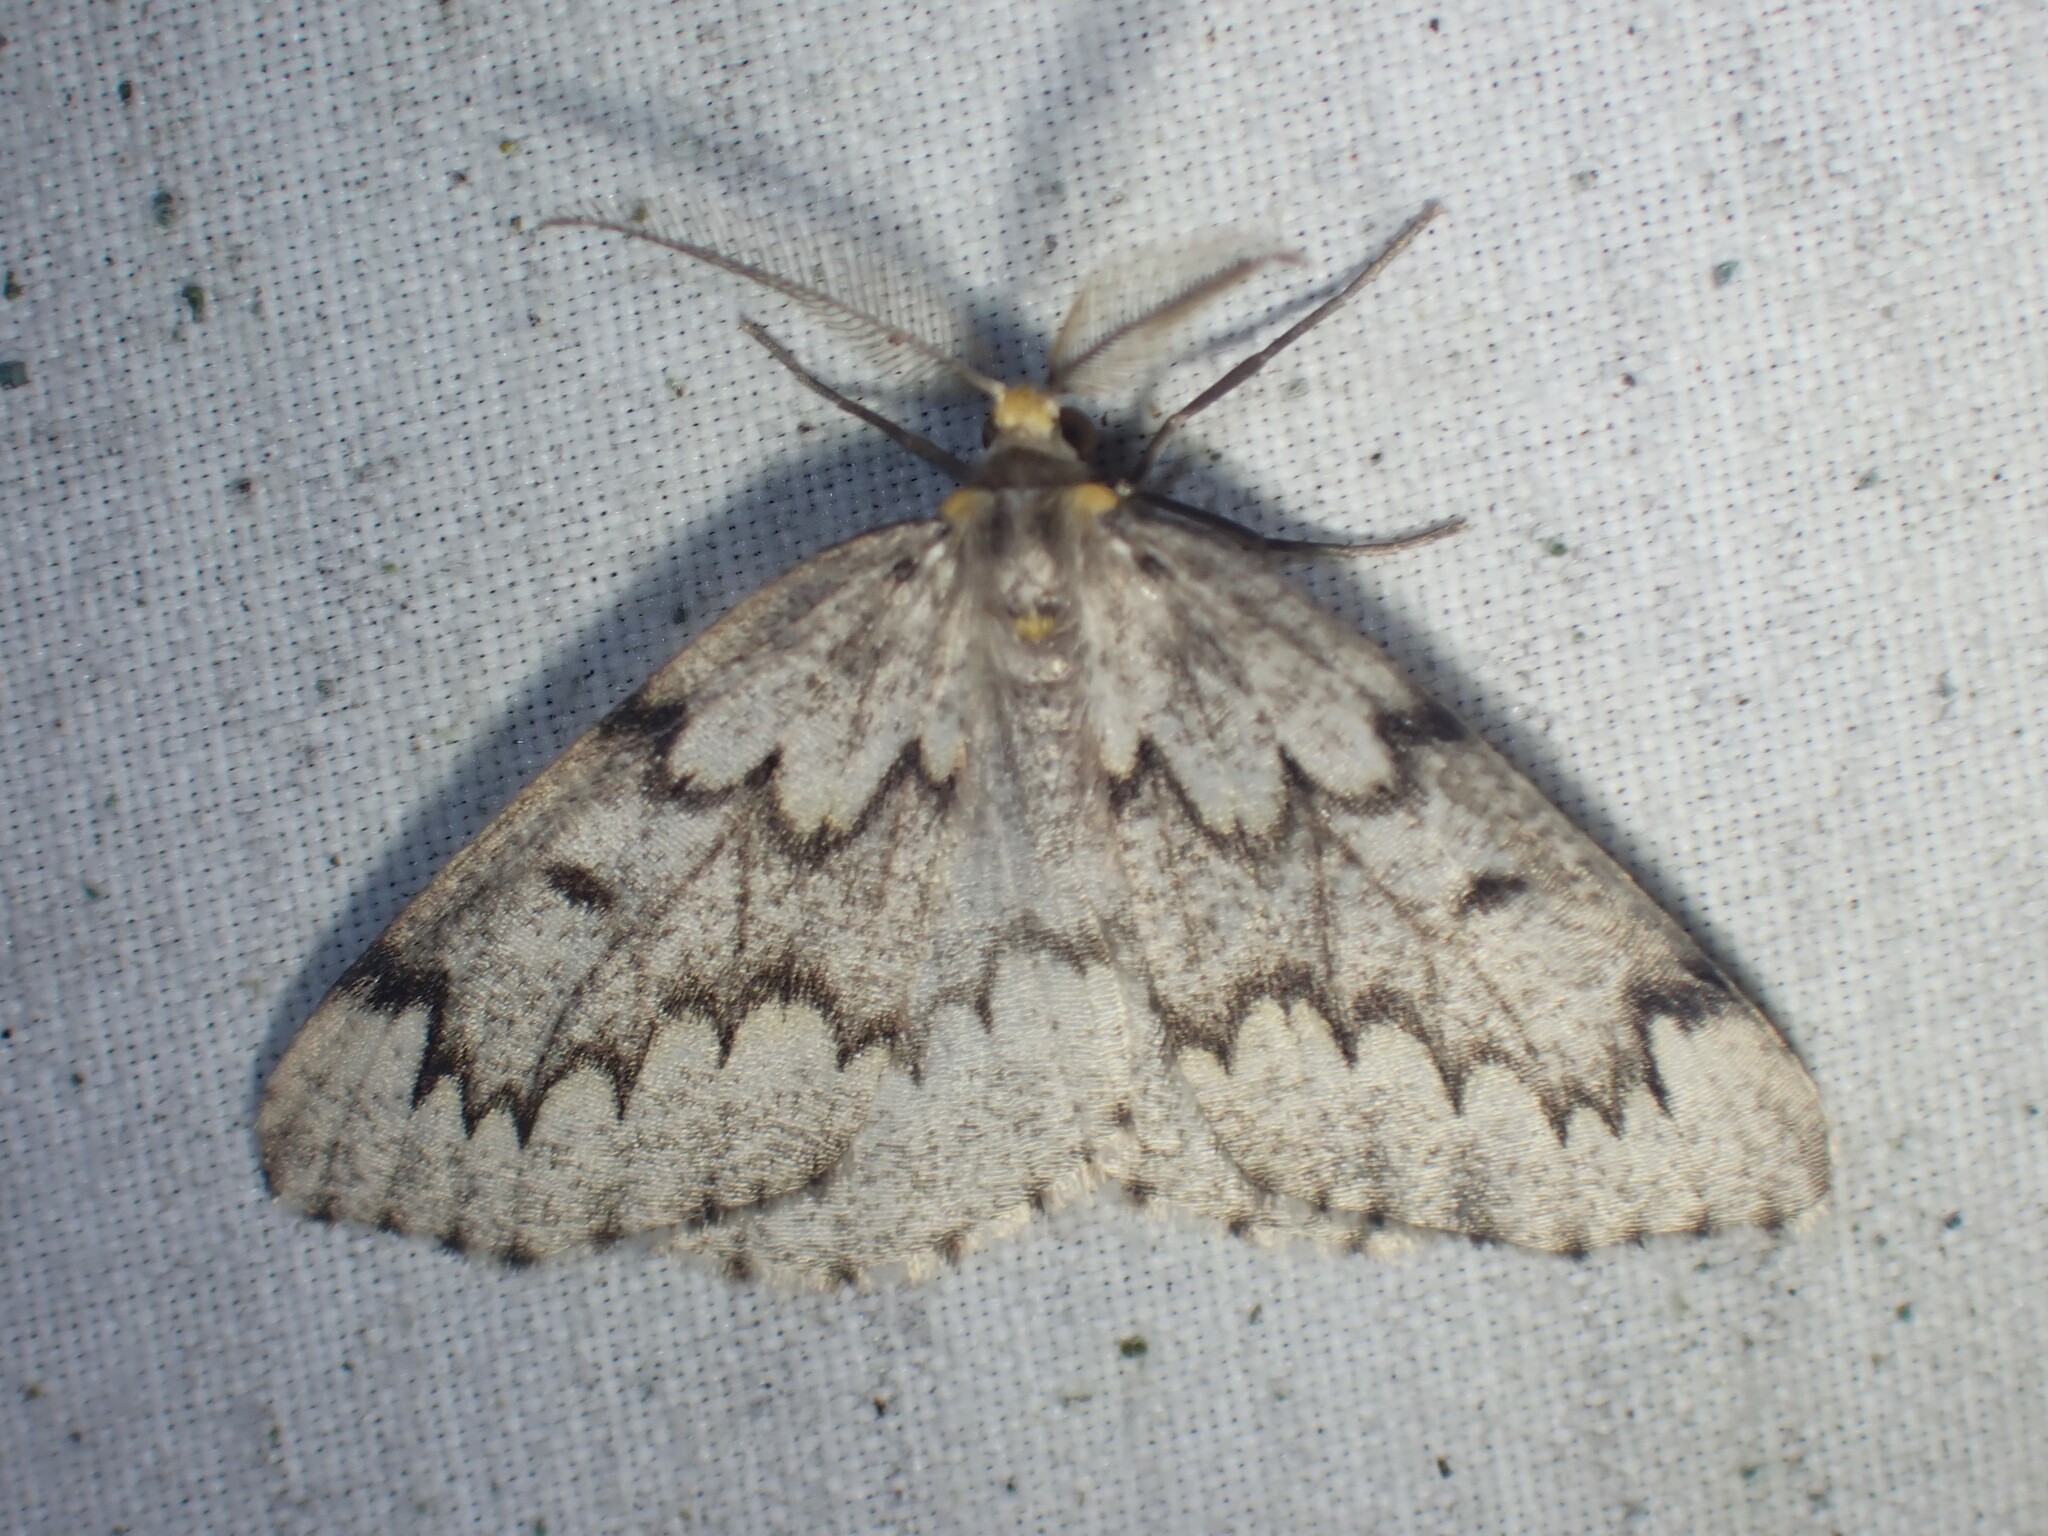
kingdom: Animalia
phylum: Arthropoda
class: Insecta
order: Lepidoptera
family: Geometridae
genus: Nepytia
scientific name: Nepytia canosaria
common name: False hemlock looper
